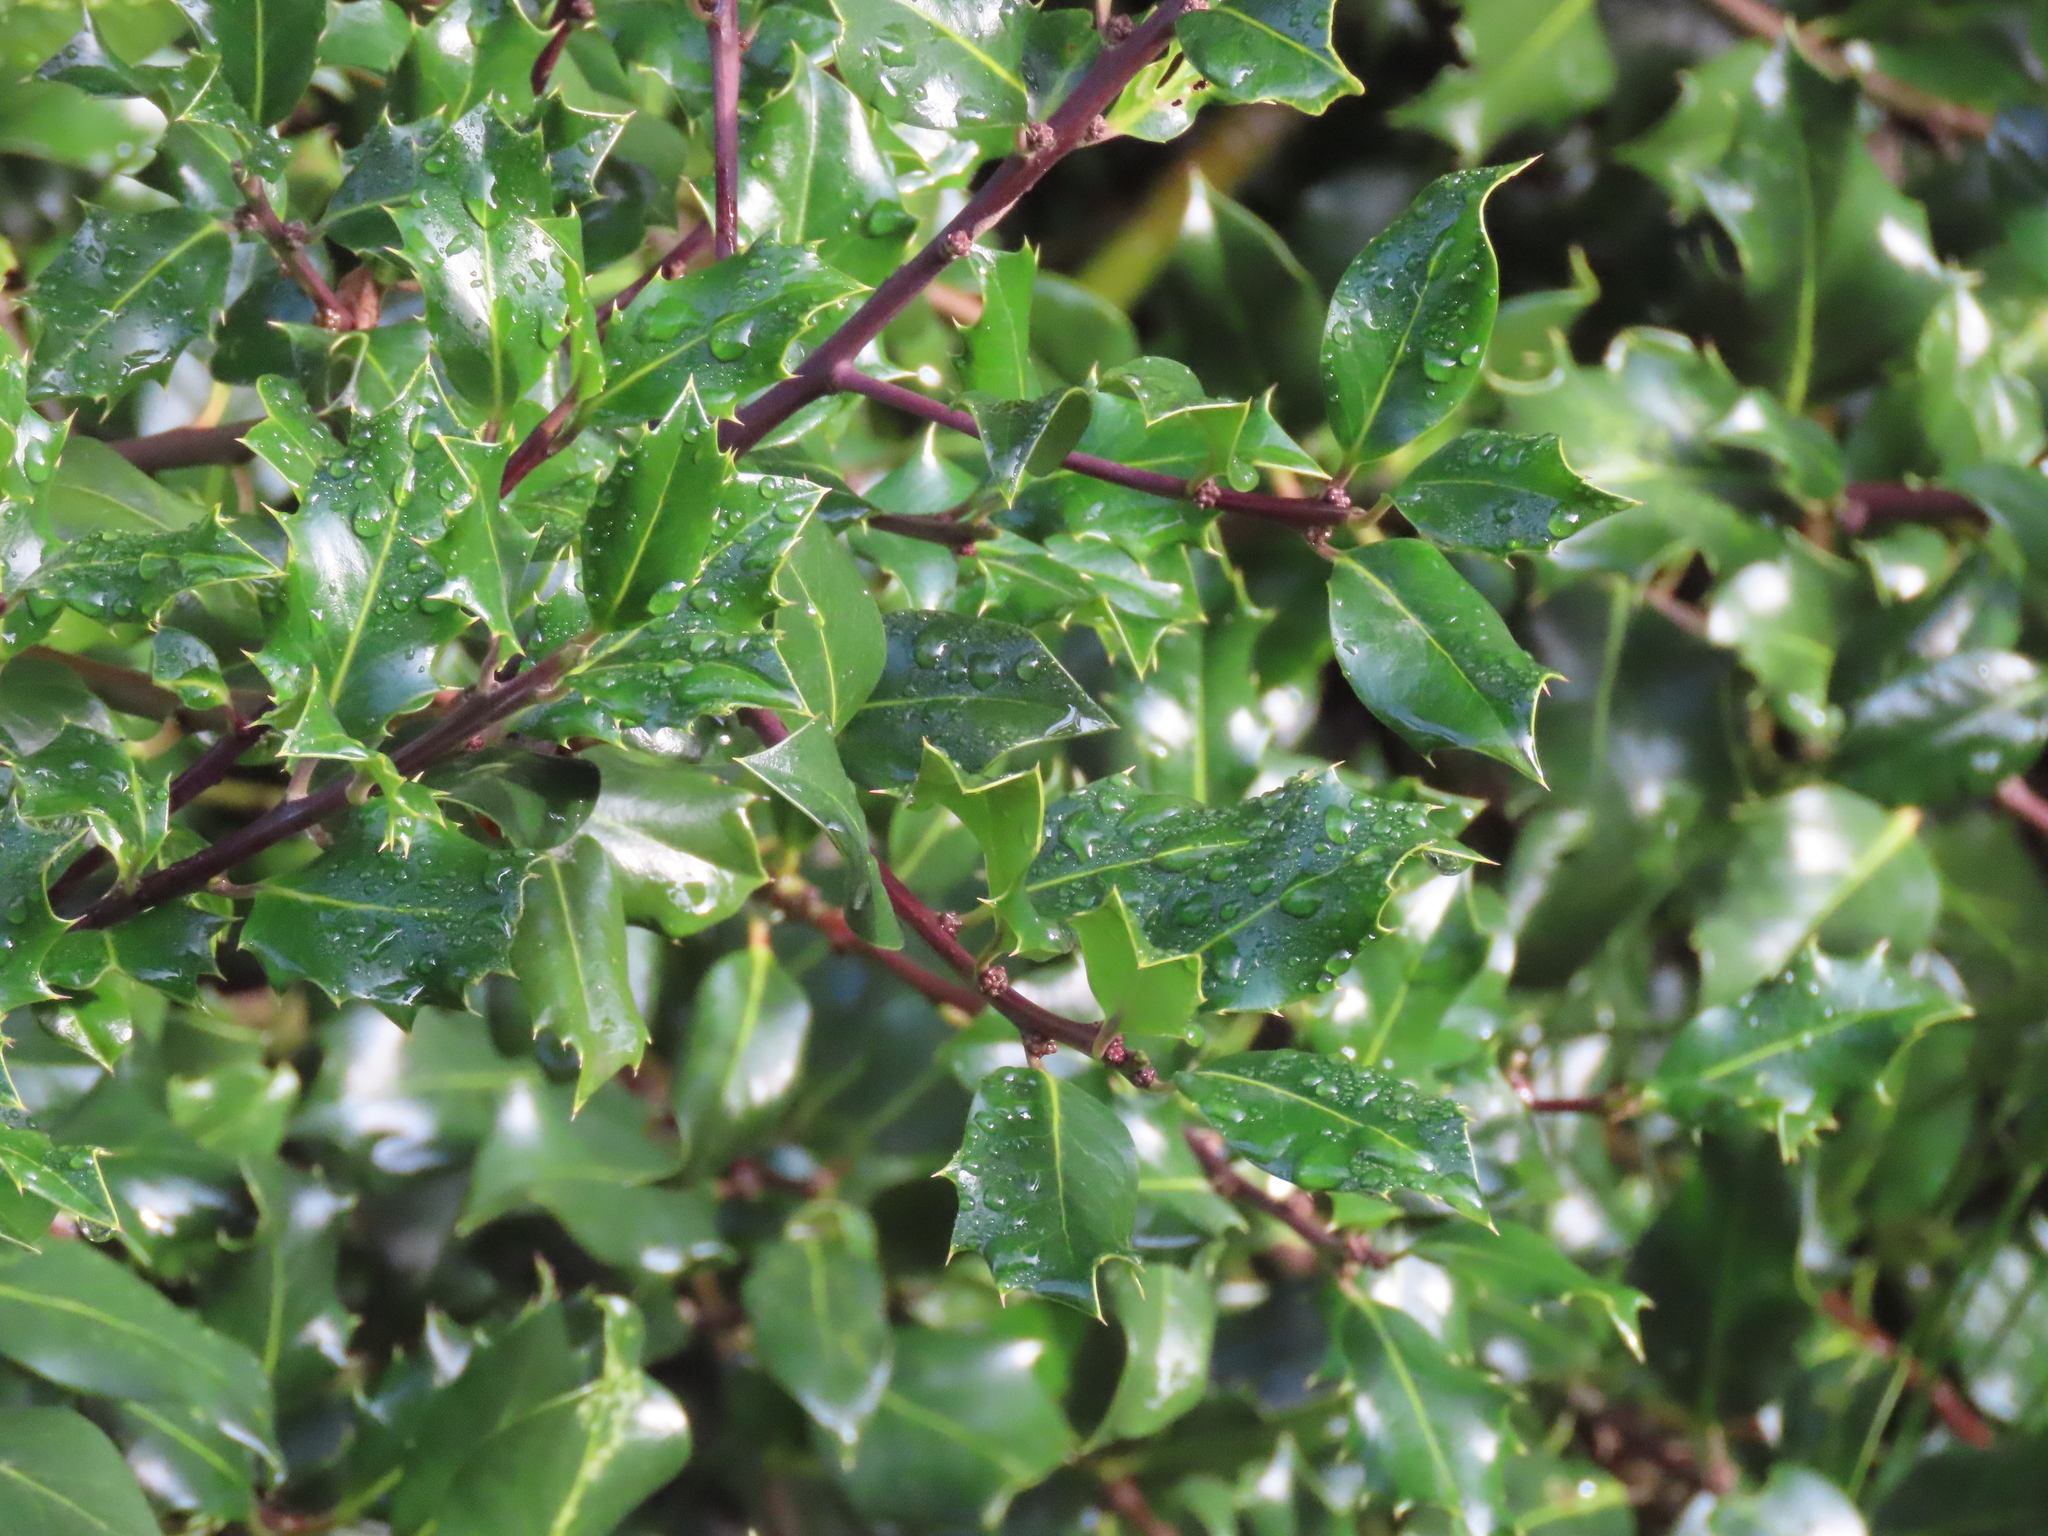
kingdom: Plantae
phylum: Tracheophyta
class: Magnoliopsida
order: Aquifoliales
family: Aquifoliaceae
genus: Ilex
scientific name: Ilex aquifolium
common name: English holly
